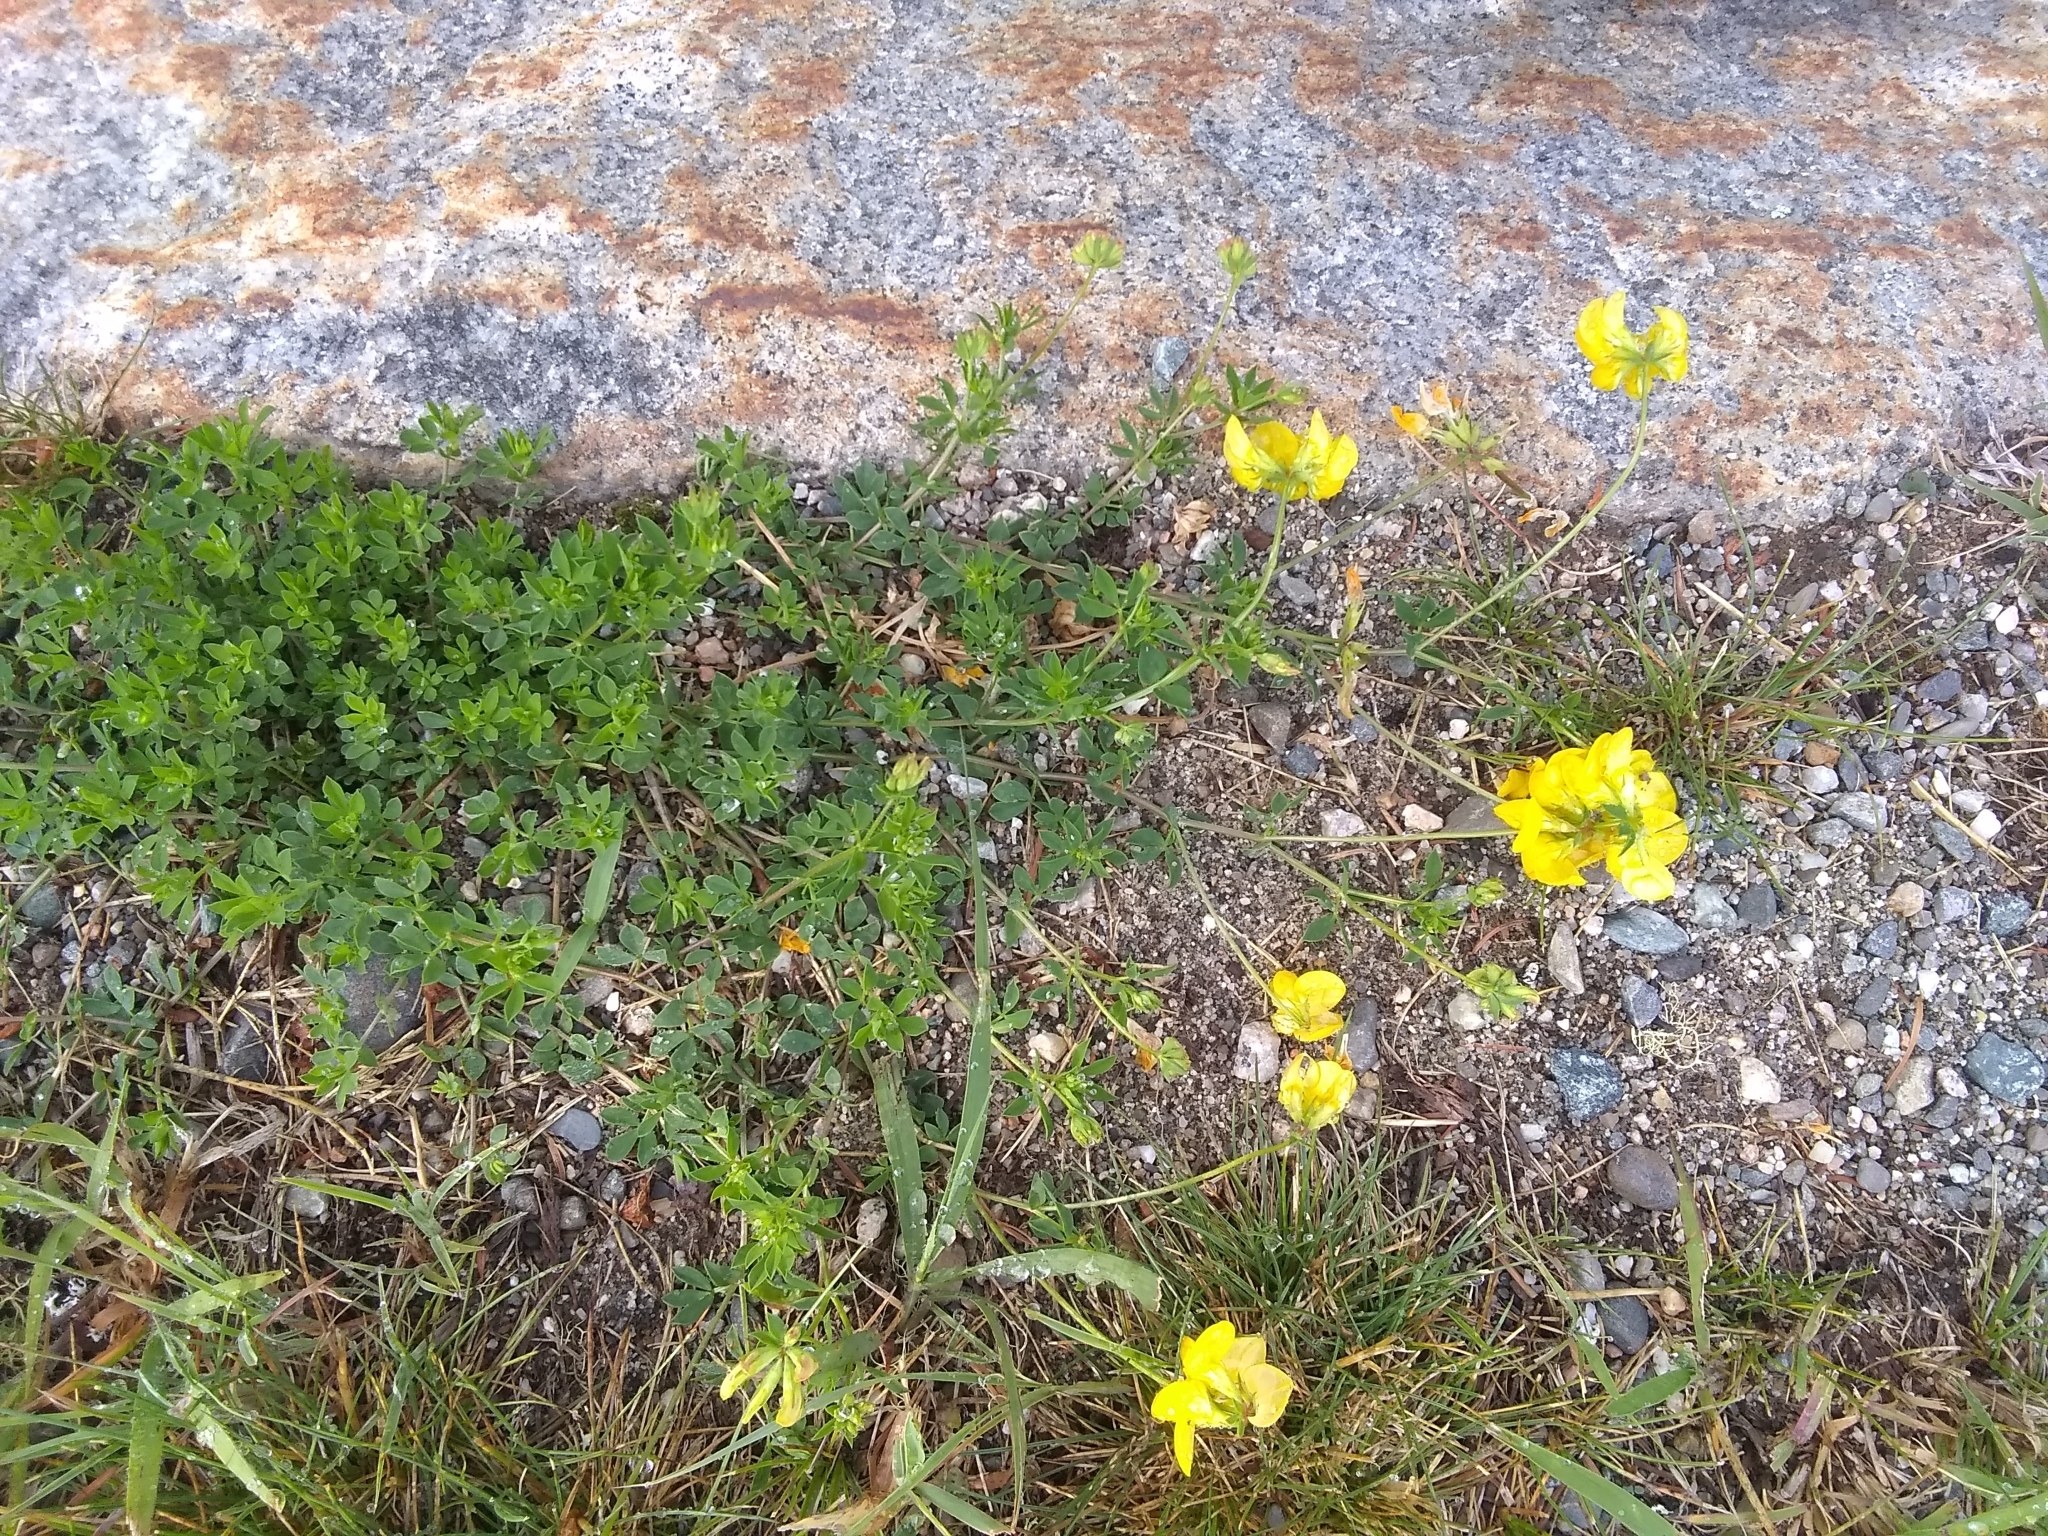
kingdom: Plantae
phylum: Tracheophyta
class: Magnoliopsida
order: Fabales
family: Fabaceae
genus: Lotus
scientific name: Lotus corniculatus
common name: Common bird's-foot-trefoil
